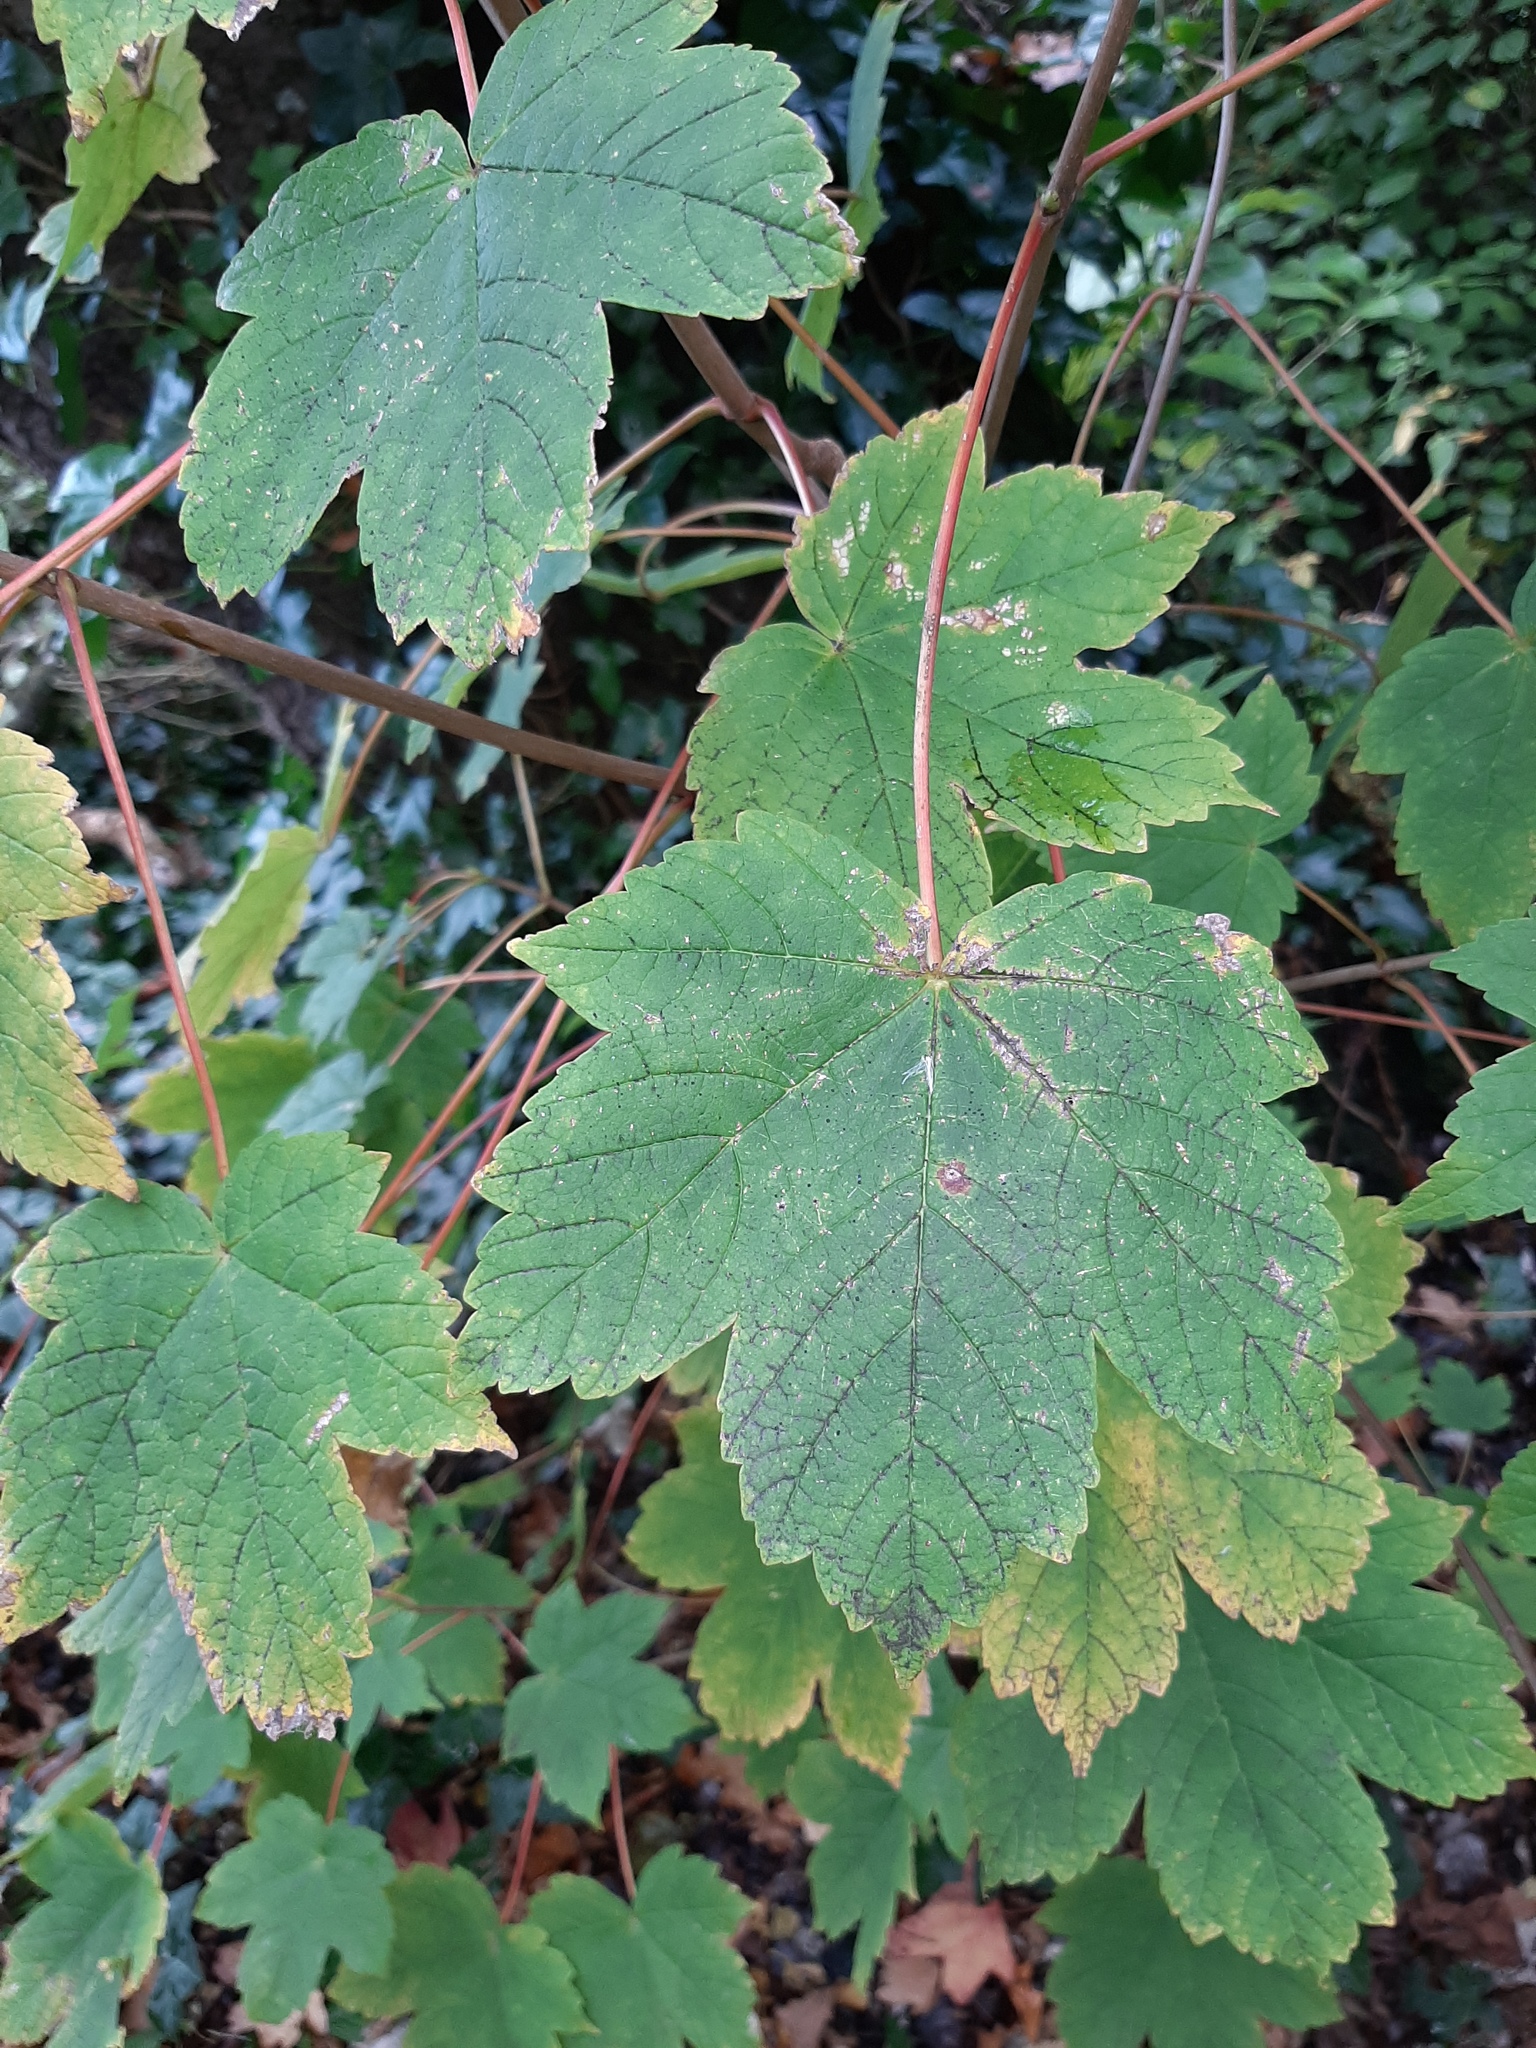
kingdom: Plantae
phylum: Tracheophyta
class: Magnoliopsida
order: Sapindales
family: Sapindaceae
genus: Acer
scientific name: Acer pseudoplatanus
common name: Sycamore
